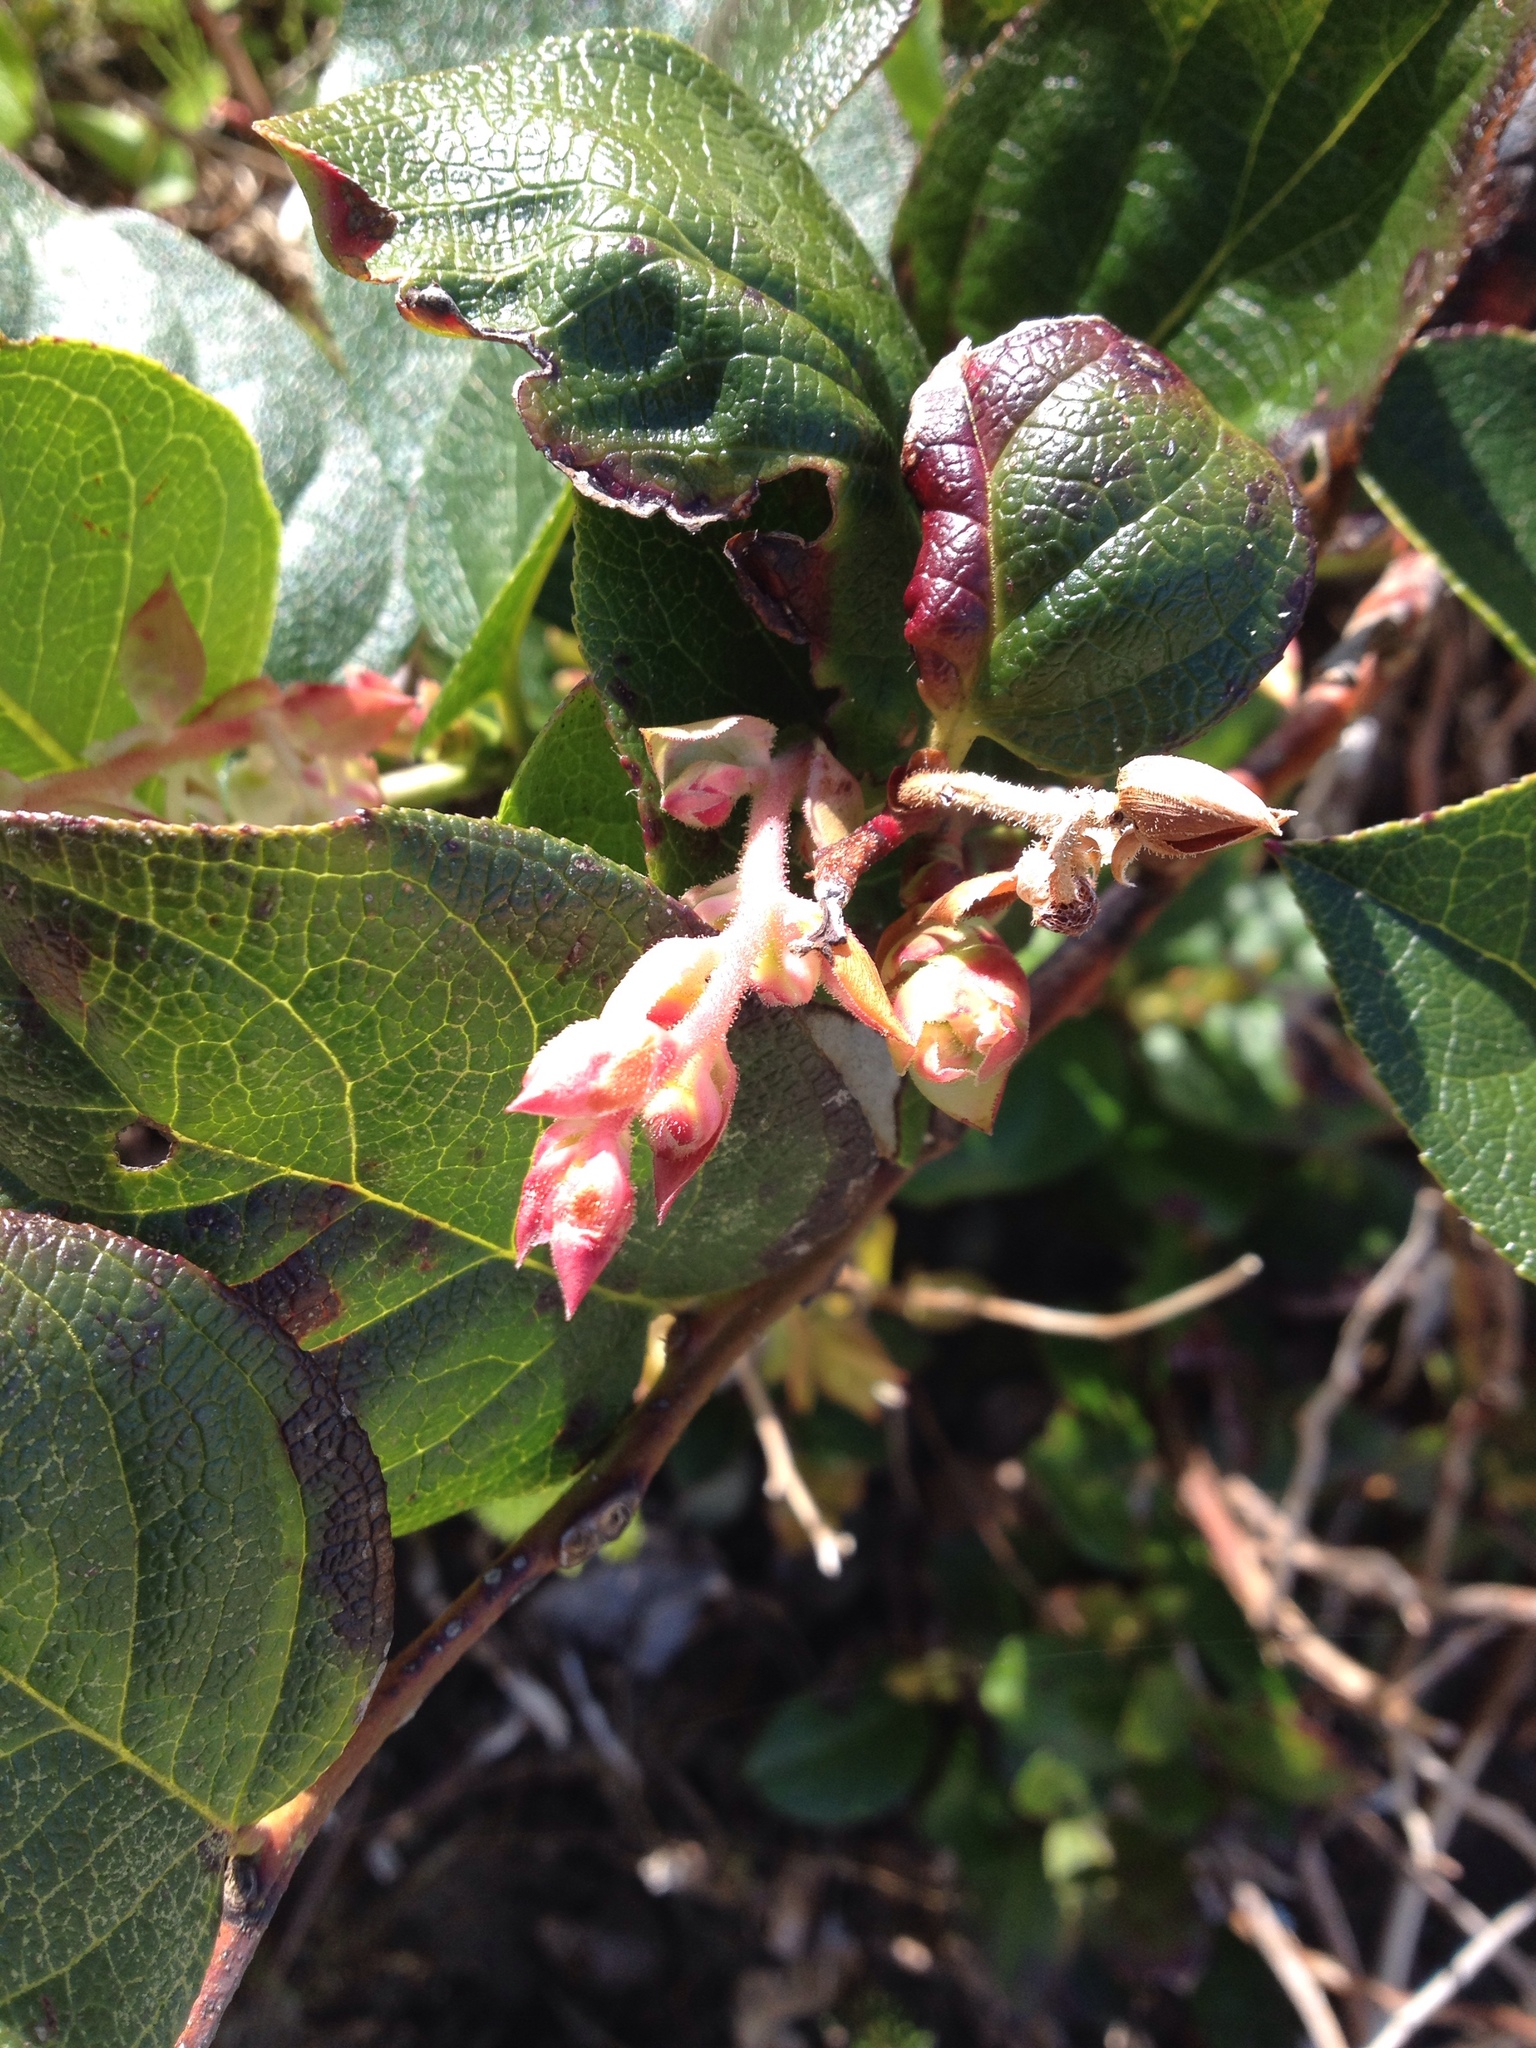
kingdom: Plantae
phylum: Tracheophyta
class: Magnoliopsida
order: Ericales
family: Ericaceae
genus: Gaultheria
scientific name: Gaultheria shallon
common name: Shallon
